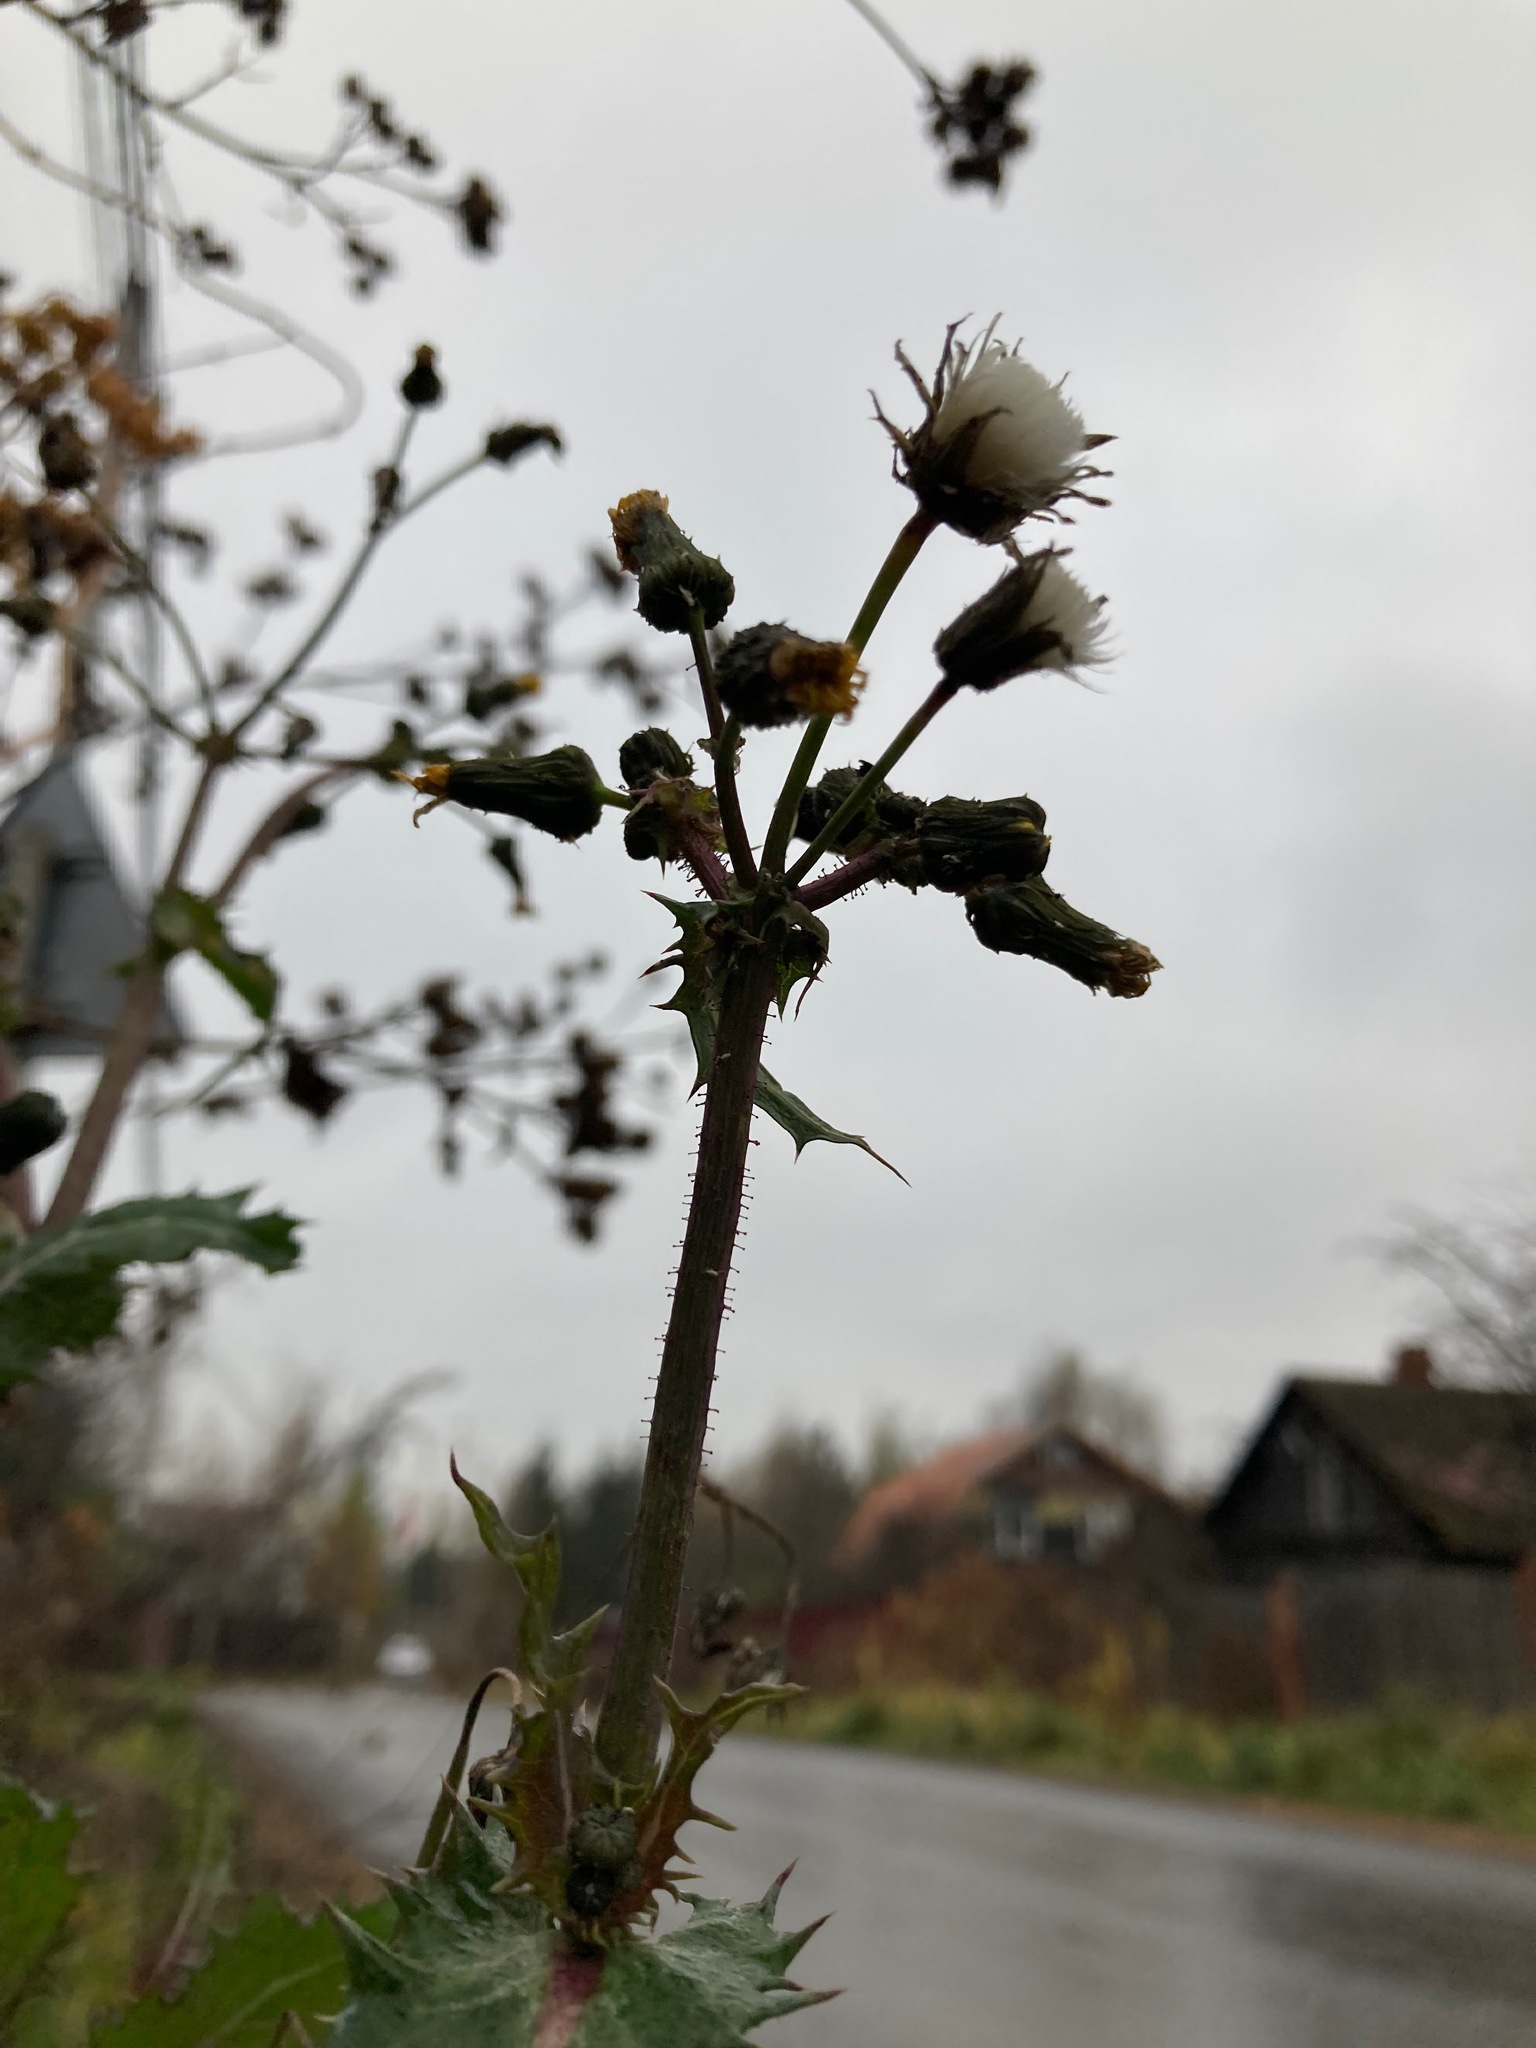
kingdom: Plantae
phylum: Tracheophyta
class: Magnoliopsida
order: Asterales
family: Asteraceae
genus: Sonchus
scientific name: Sonchus oleraceus
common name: Common sowthistle
